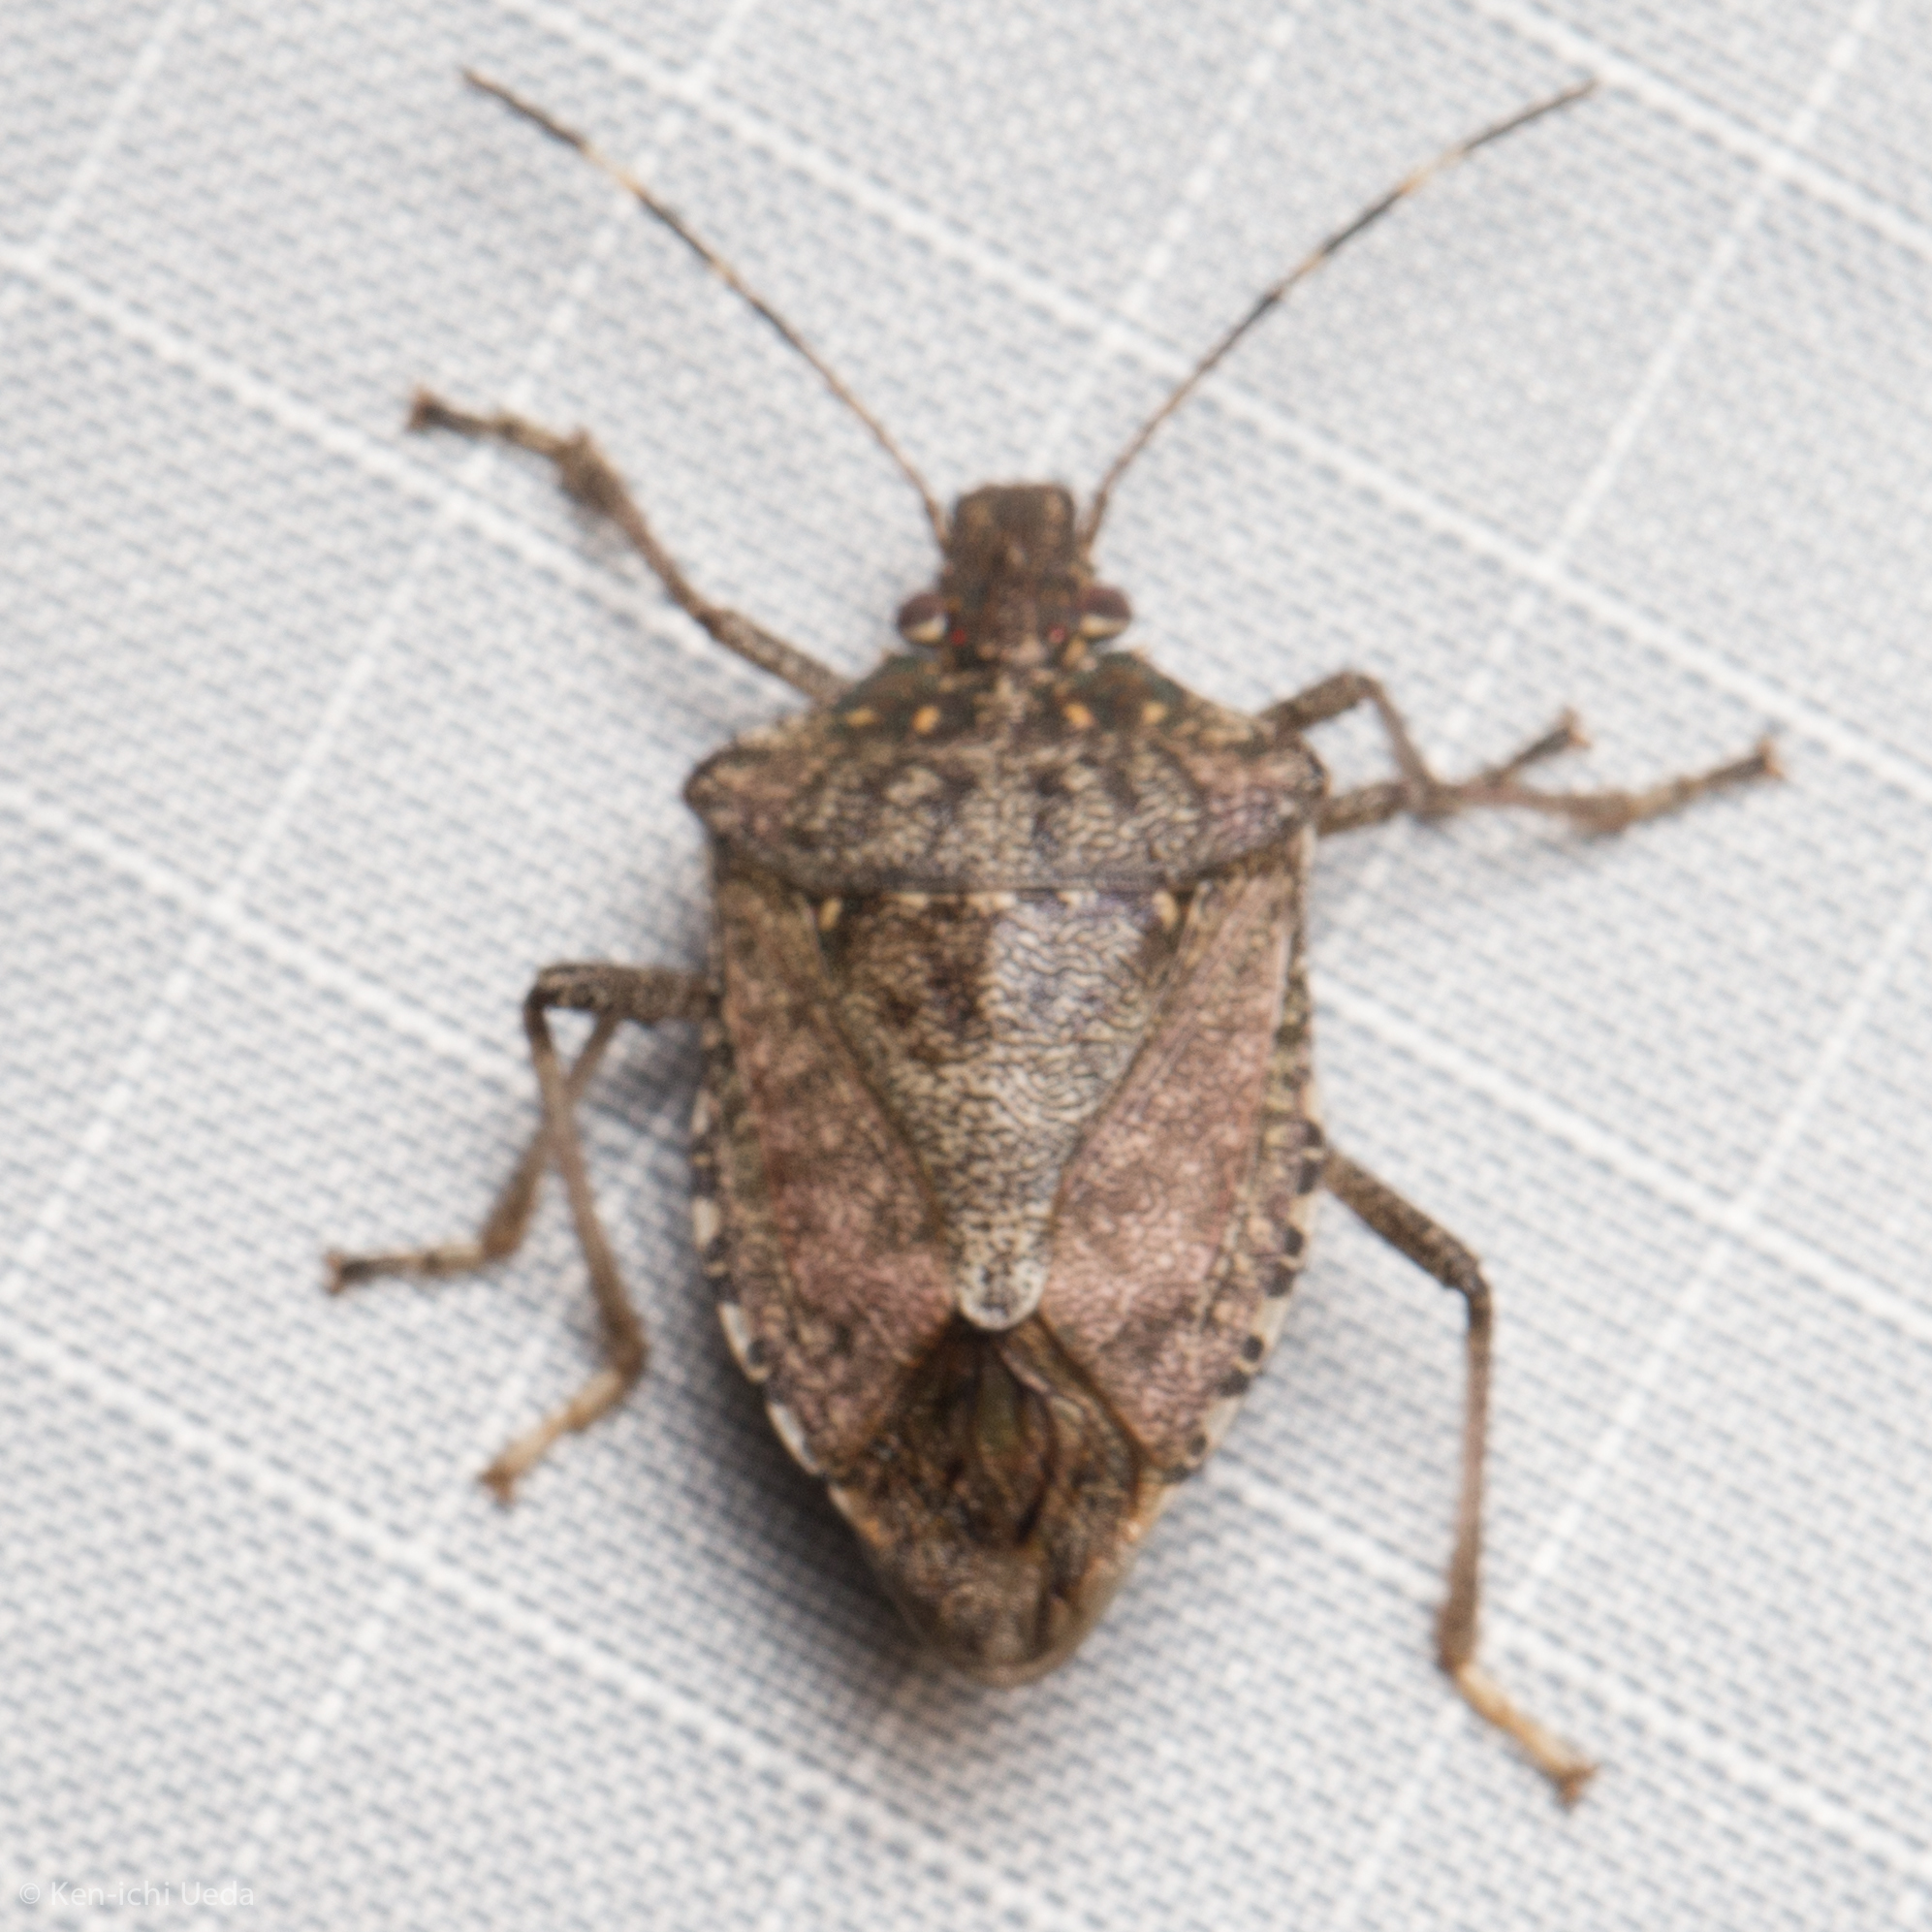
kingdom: Animalia
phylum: Arthropoda
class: Insecta
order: Hemiptera
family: Pentatomidae
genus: Halyomorpha
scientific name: Halyomorpha halys
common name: Brown marmorated stink bug
